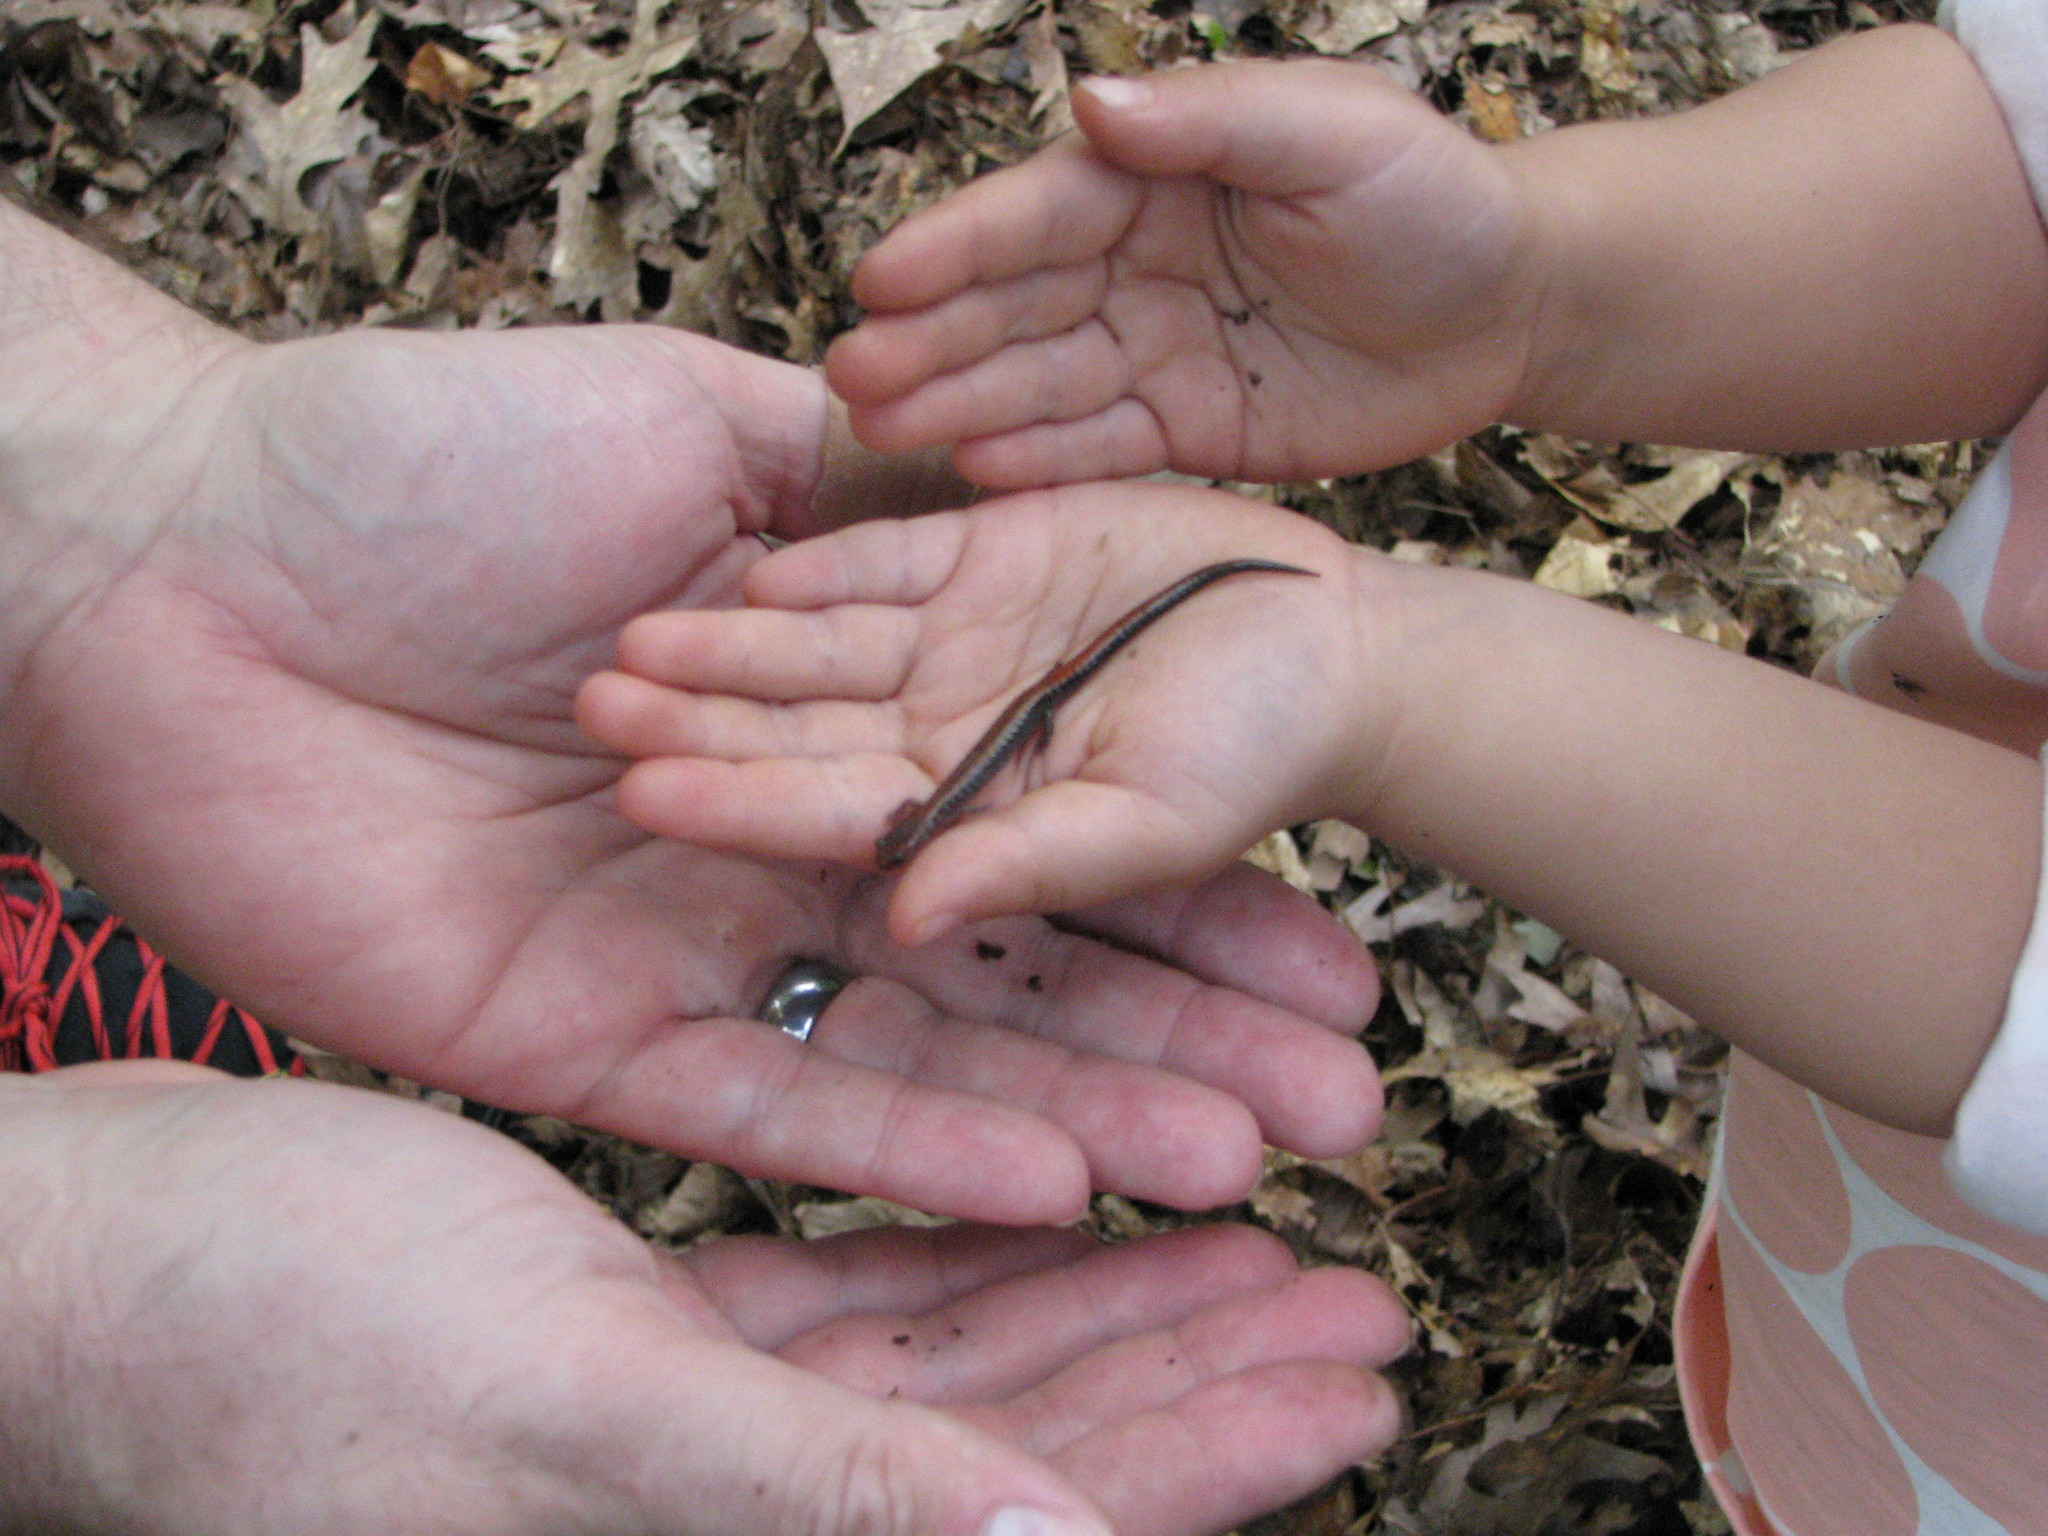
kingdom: Animalia
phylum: Chordata
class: Amphibia
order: Caudata
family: Plethodontidae
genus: Plethodon
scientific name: Plethodon cinereus
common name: Redback salamander
